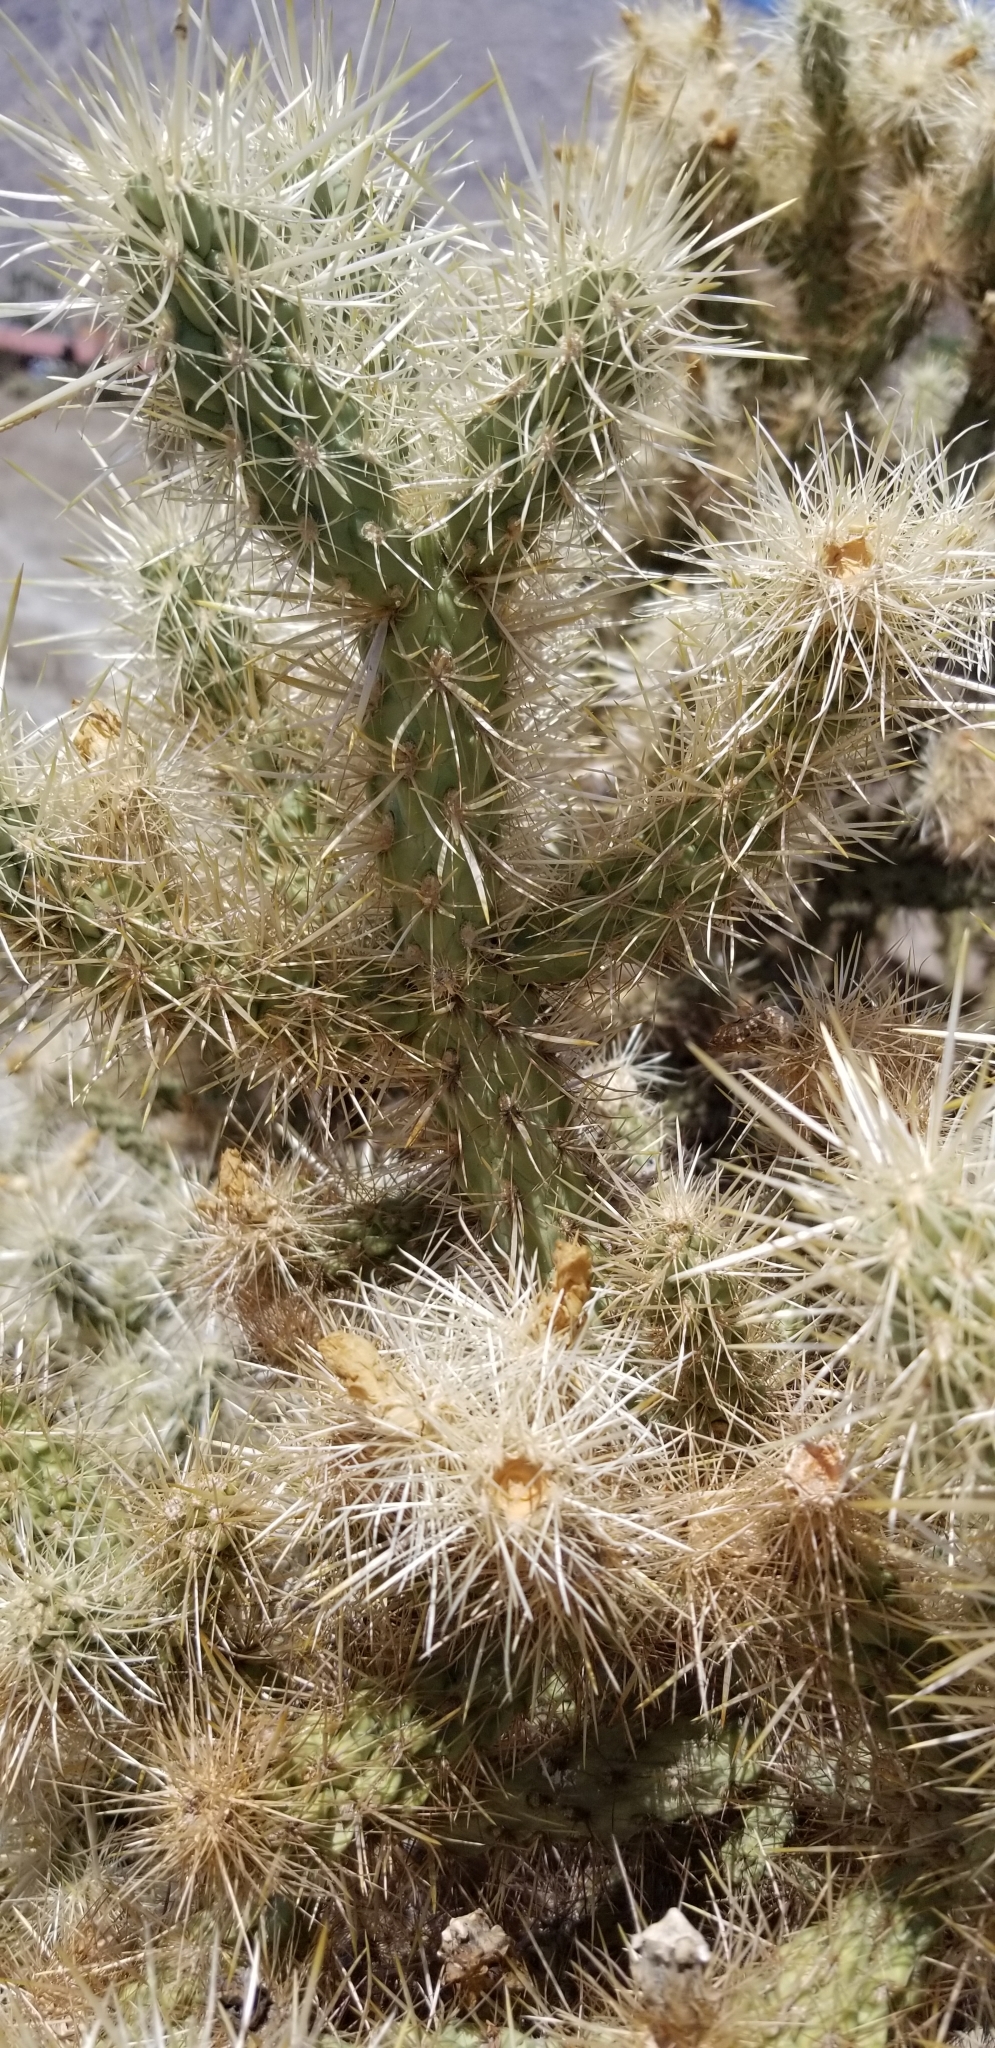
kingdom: Plantae
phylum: Tracheophyta
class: Magnoliopsida
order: Caryophyllales
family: Cactaceae
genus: Cylindropuntia
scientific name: Cylindropuntia echinocarpa
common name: Ground cholla
